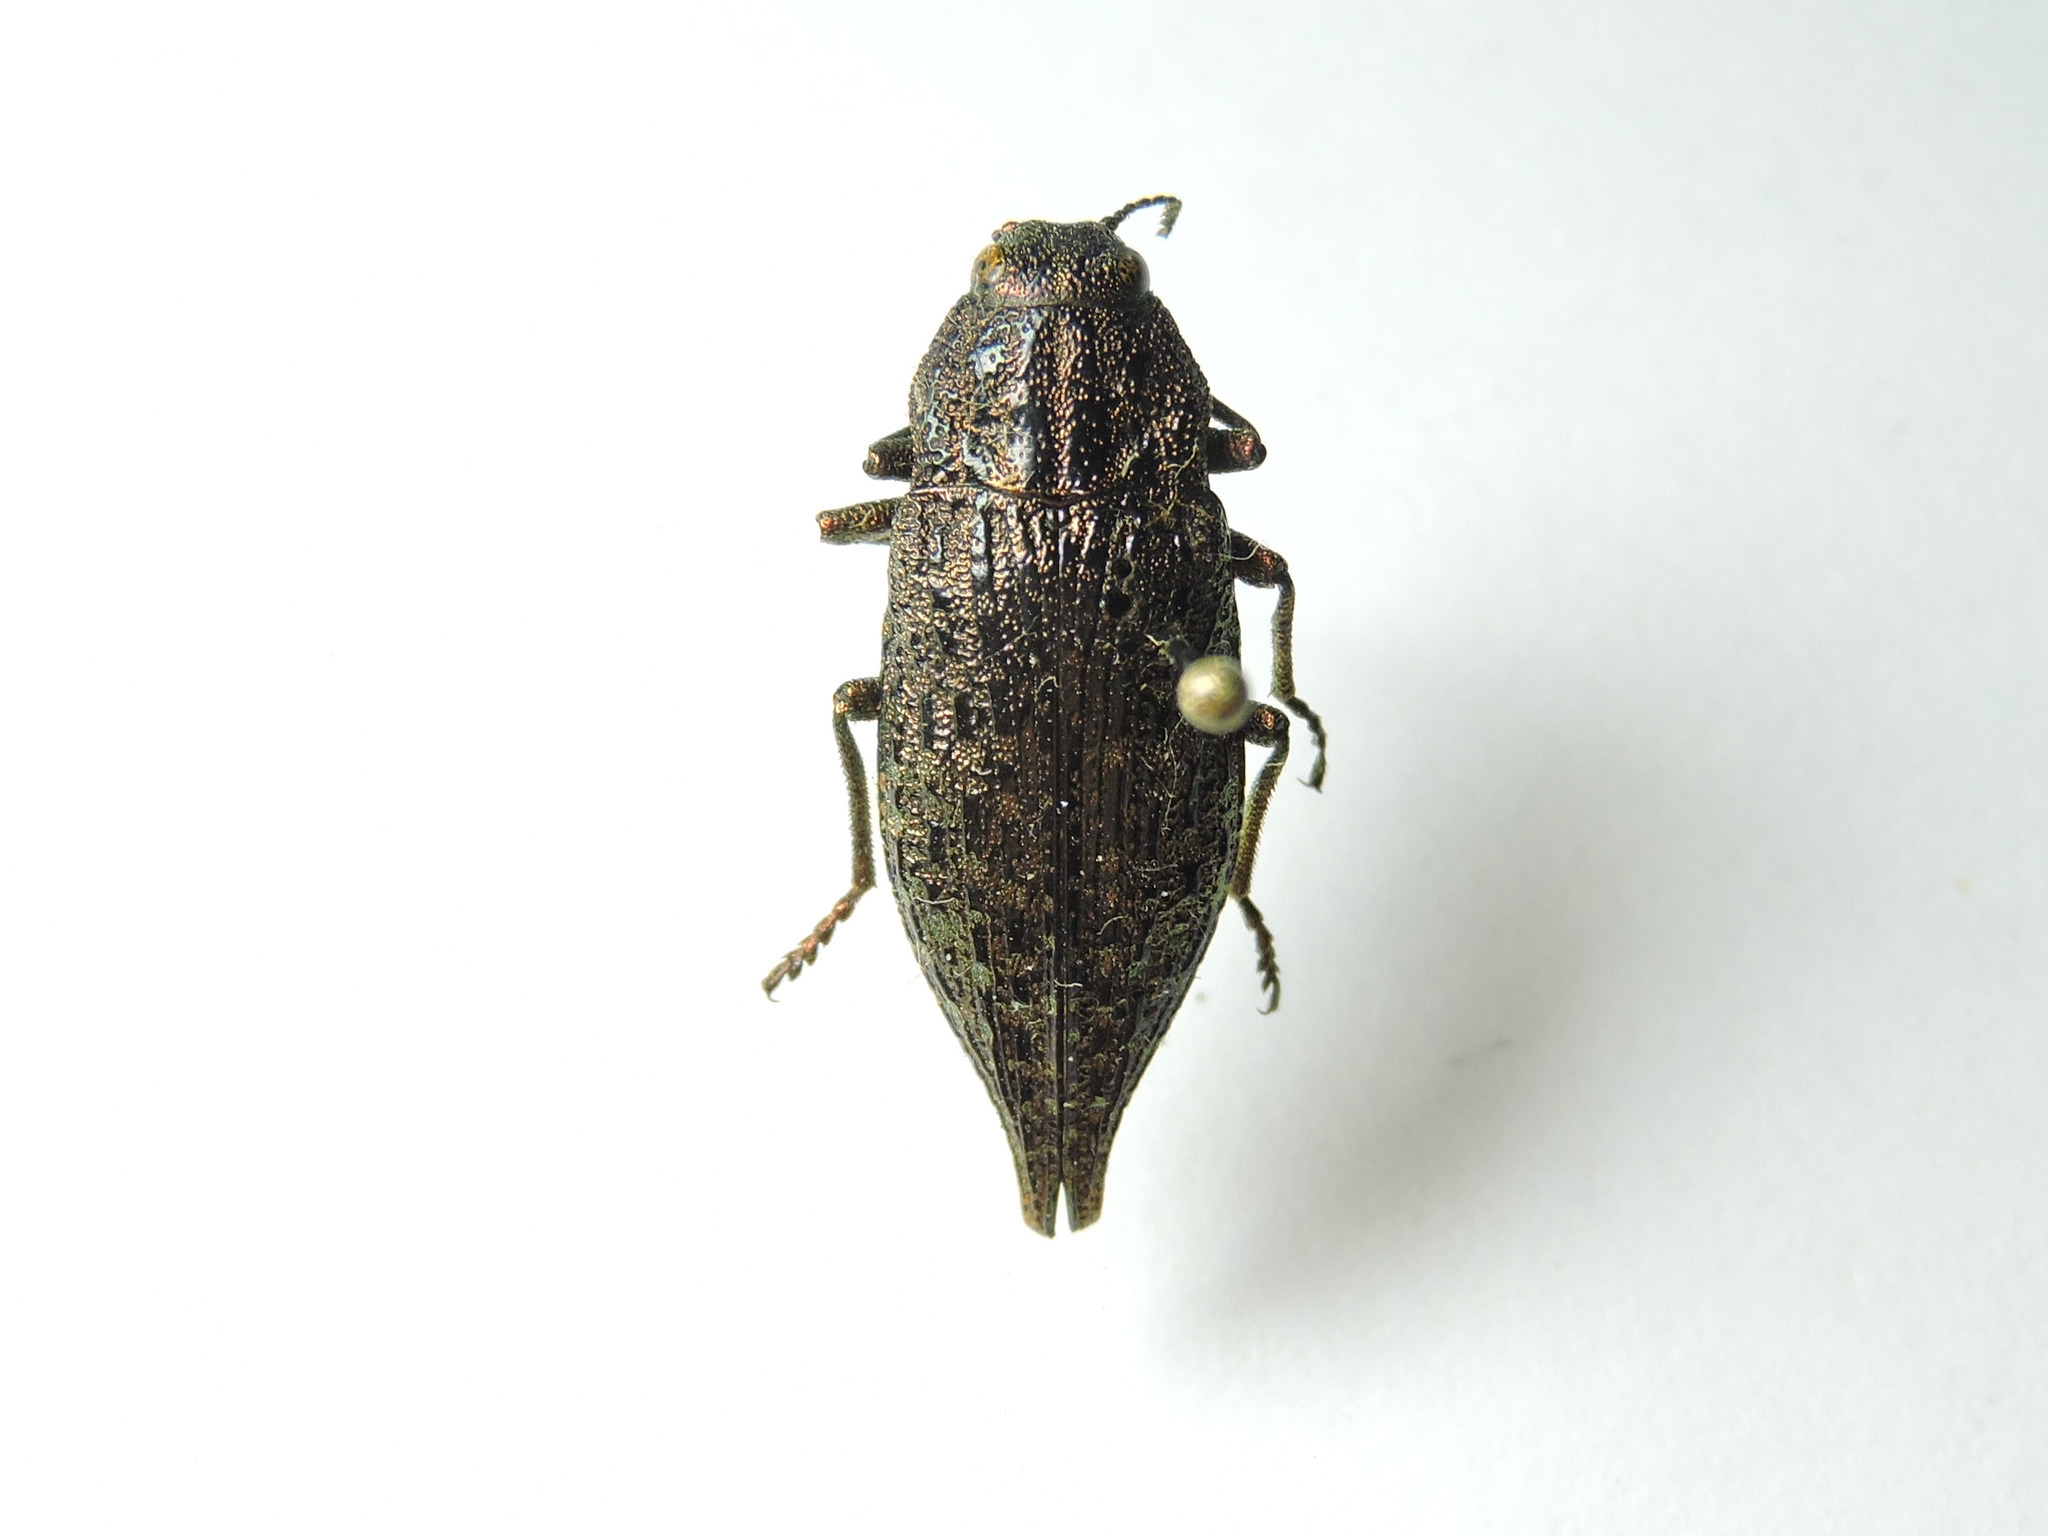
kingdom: Animalia
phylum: Arthropoda
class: Insecta
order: Coleoptera
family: Buprestidae
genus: Dicerca
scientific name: Dicerca furcata
